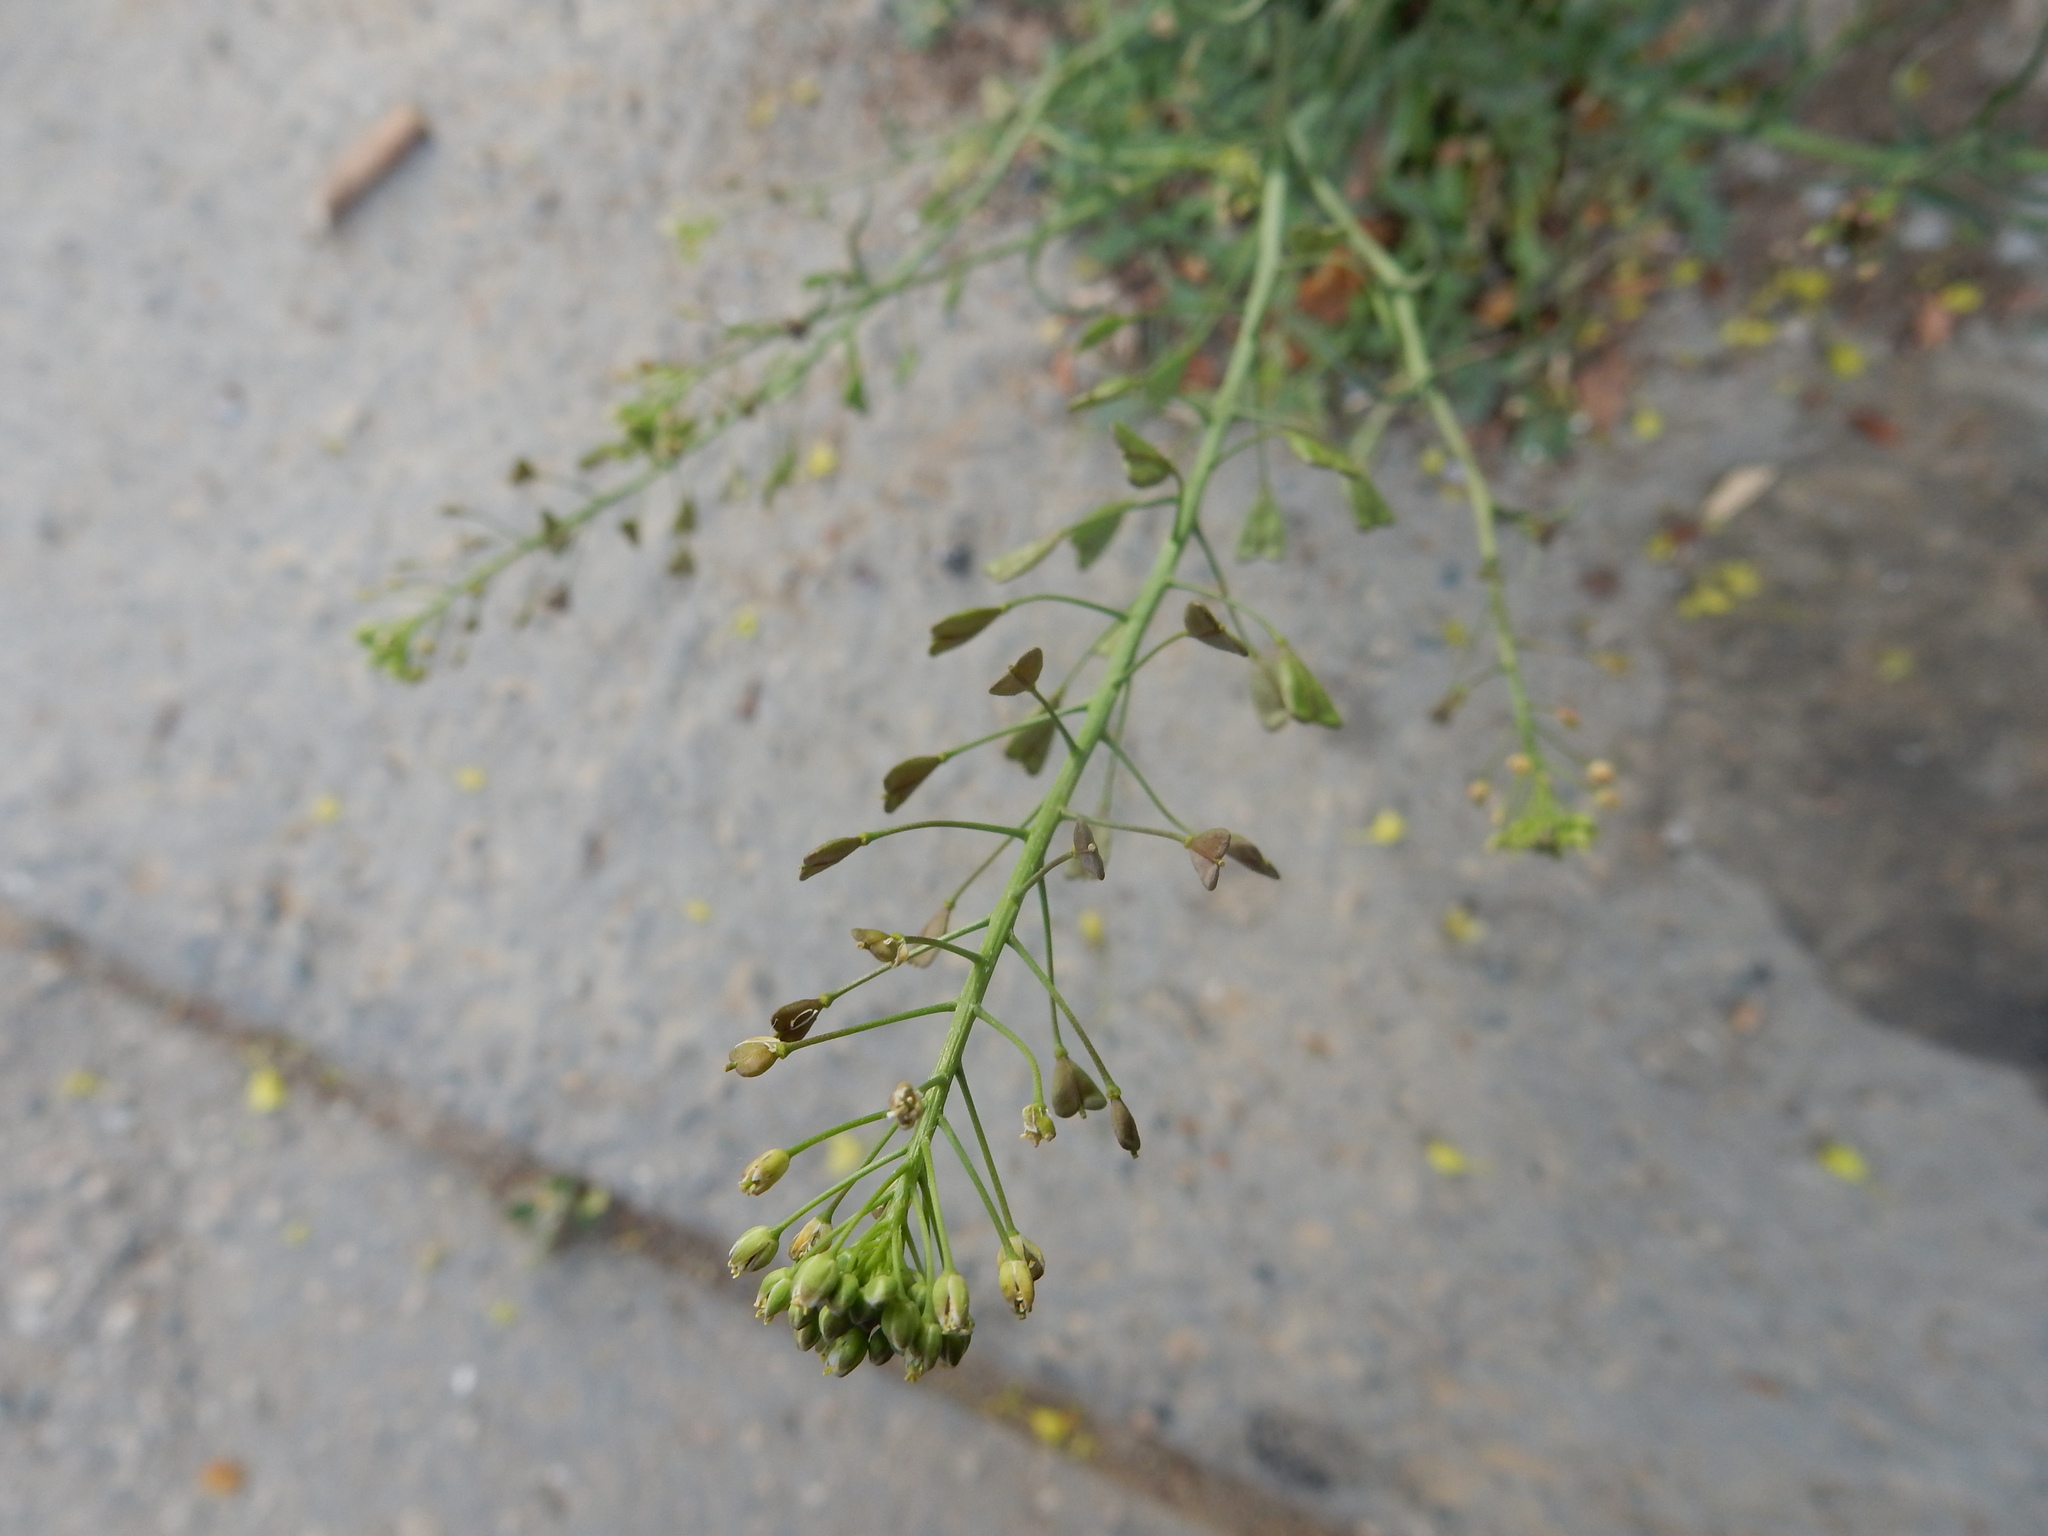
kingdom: Plantae
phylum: Tracheophyta
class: Magnoliopsida
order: Brassicales
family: Brassicaceae
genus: Capsella
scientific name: Capsella bursa-pastoris
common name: Shepherd's purse
